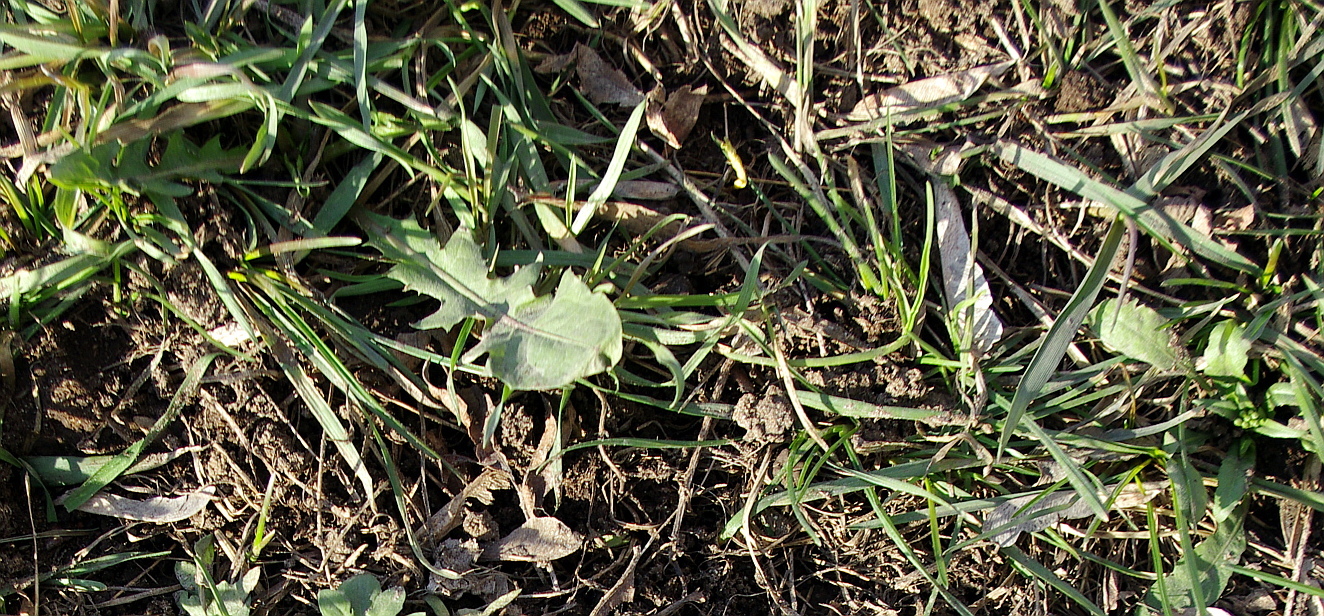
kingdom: Plantae
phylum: Tracheophyta
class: Magnoliopsida
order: Asterales
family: Asteraceae
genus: Taraxacum
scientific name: Taraxacum officinale
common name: Common dandelion
